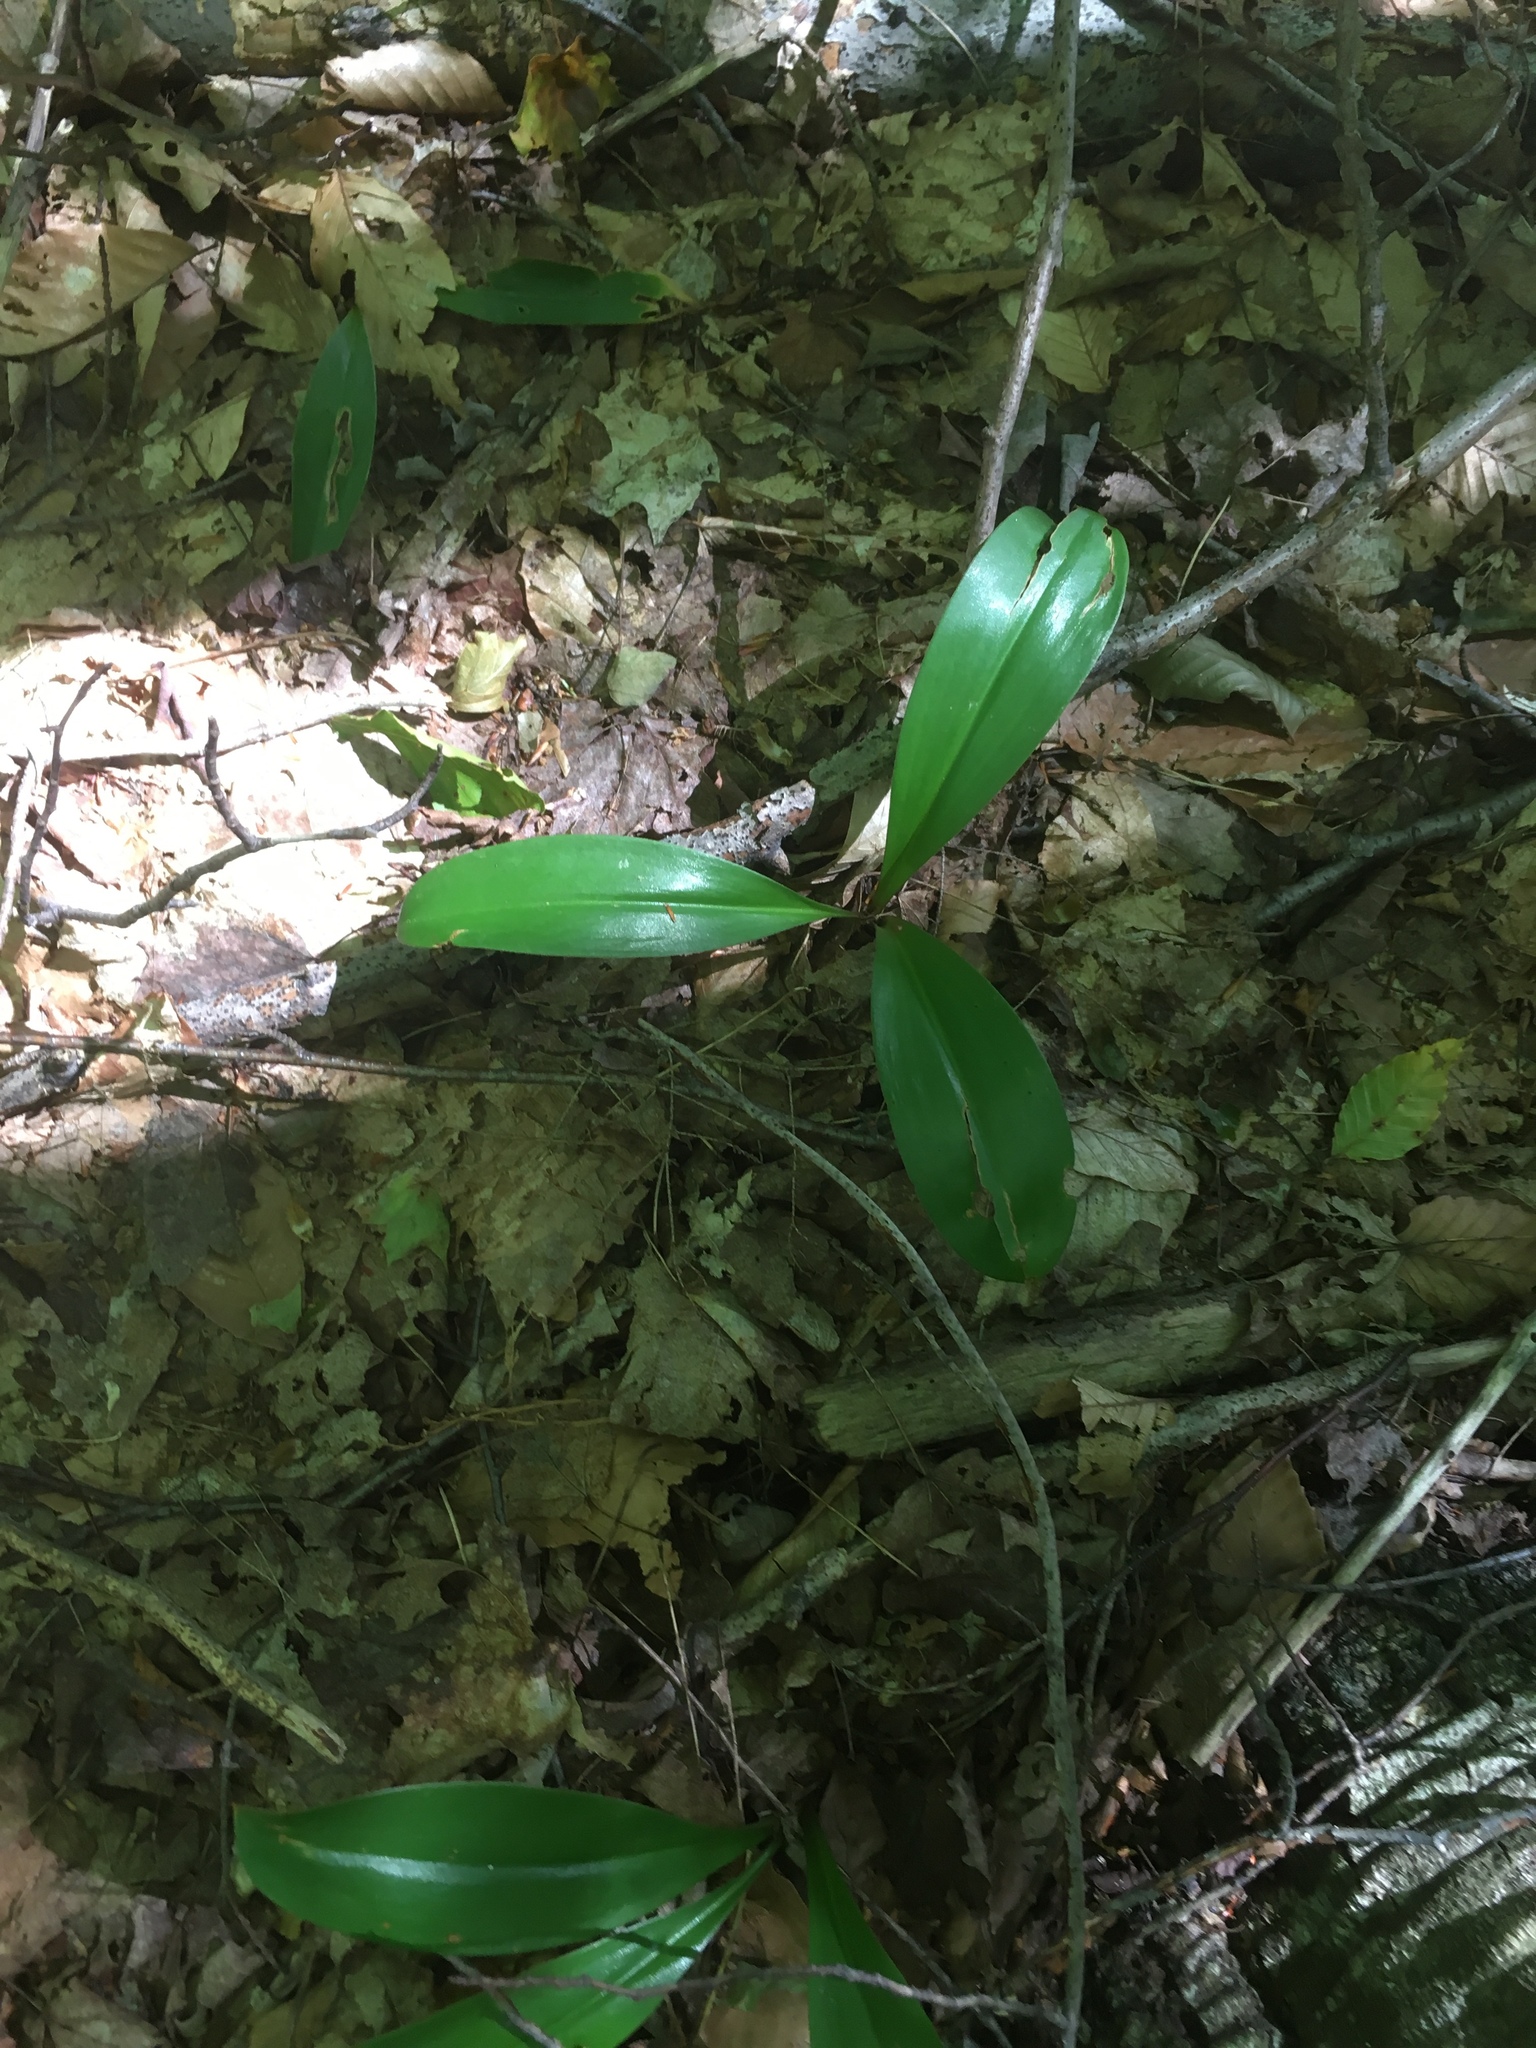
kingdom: Plantae
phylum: Tracheophyta
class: Liliopsida
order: Liliales
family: Liliaceae
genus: Clintonia
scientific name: Clintonia borealis
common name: Yellow clintonia
